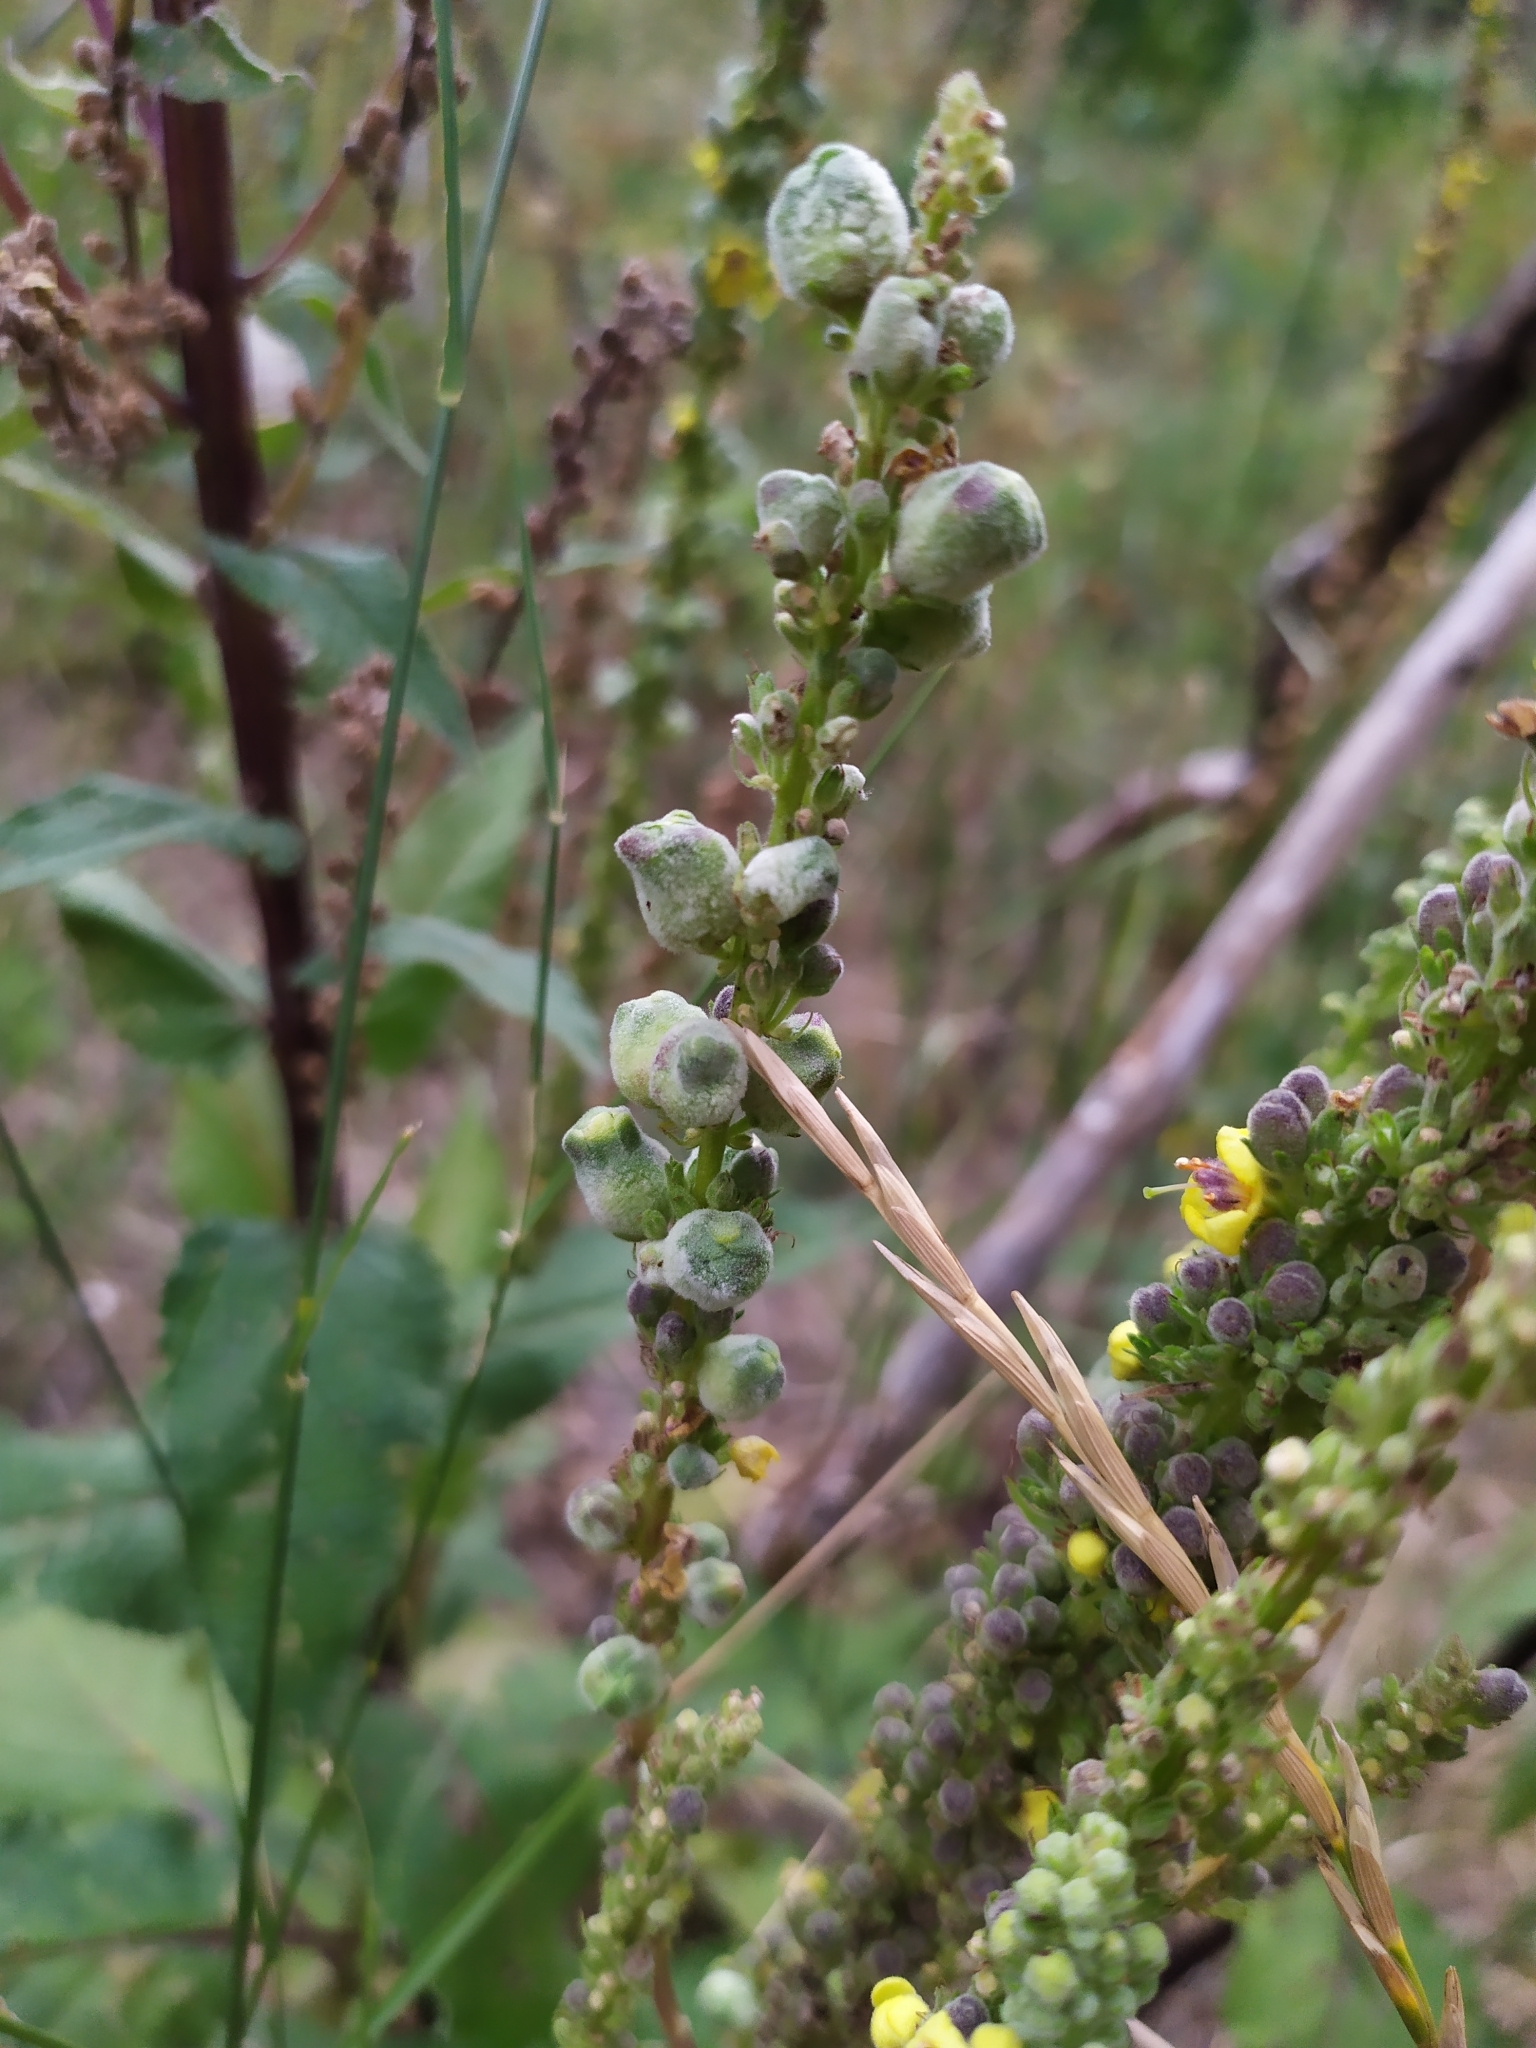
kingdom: Animalia
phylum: Arthropoda
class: Insecta
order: Diptera
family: Cecidomyiidae
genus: Asphondylia
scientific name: Asphondylia verbasci
